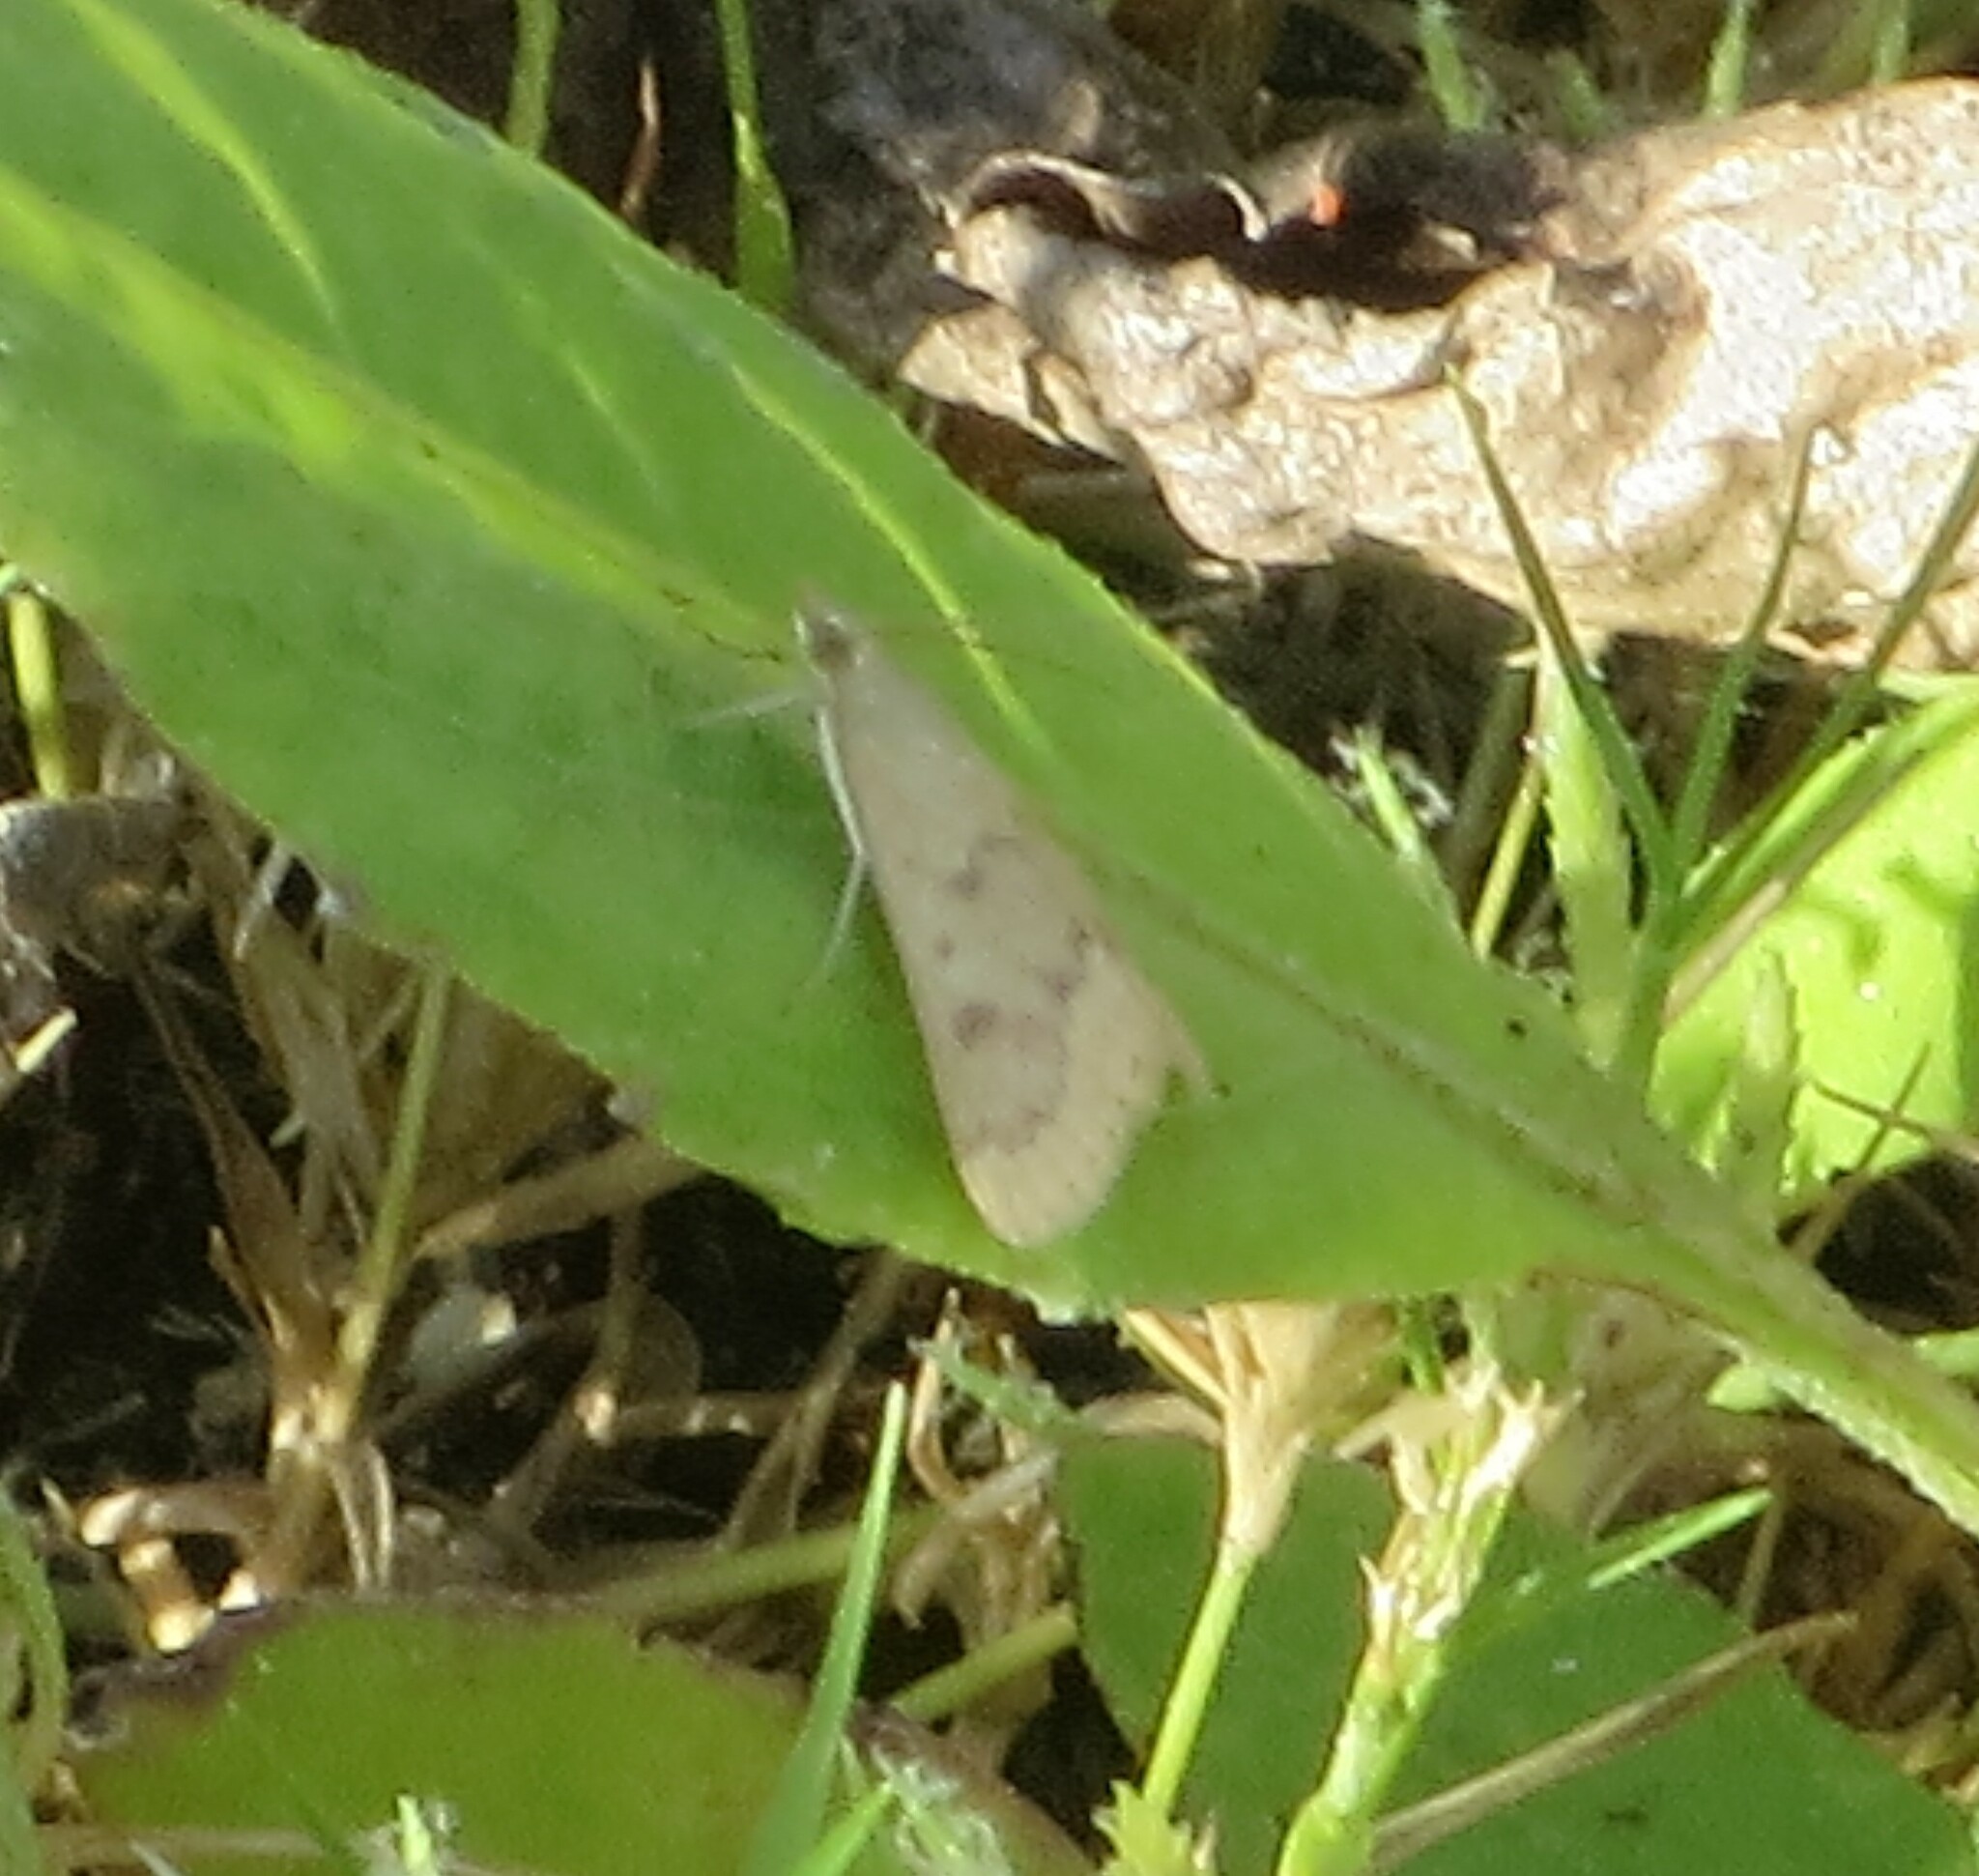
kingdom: Animalia
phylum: Arthropoda
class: Insecta
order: Lepidoptera
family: Crambidae
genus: Achyra
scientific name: Achyra rantalis
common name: Garden webworm
